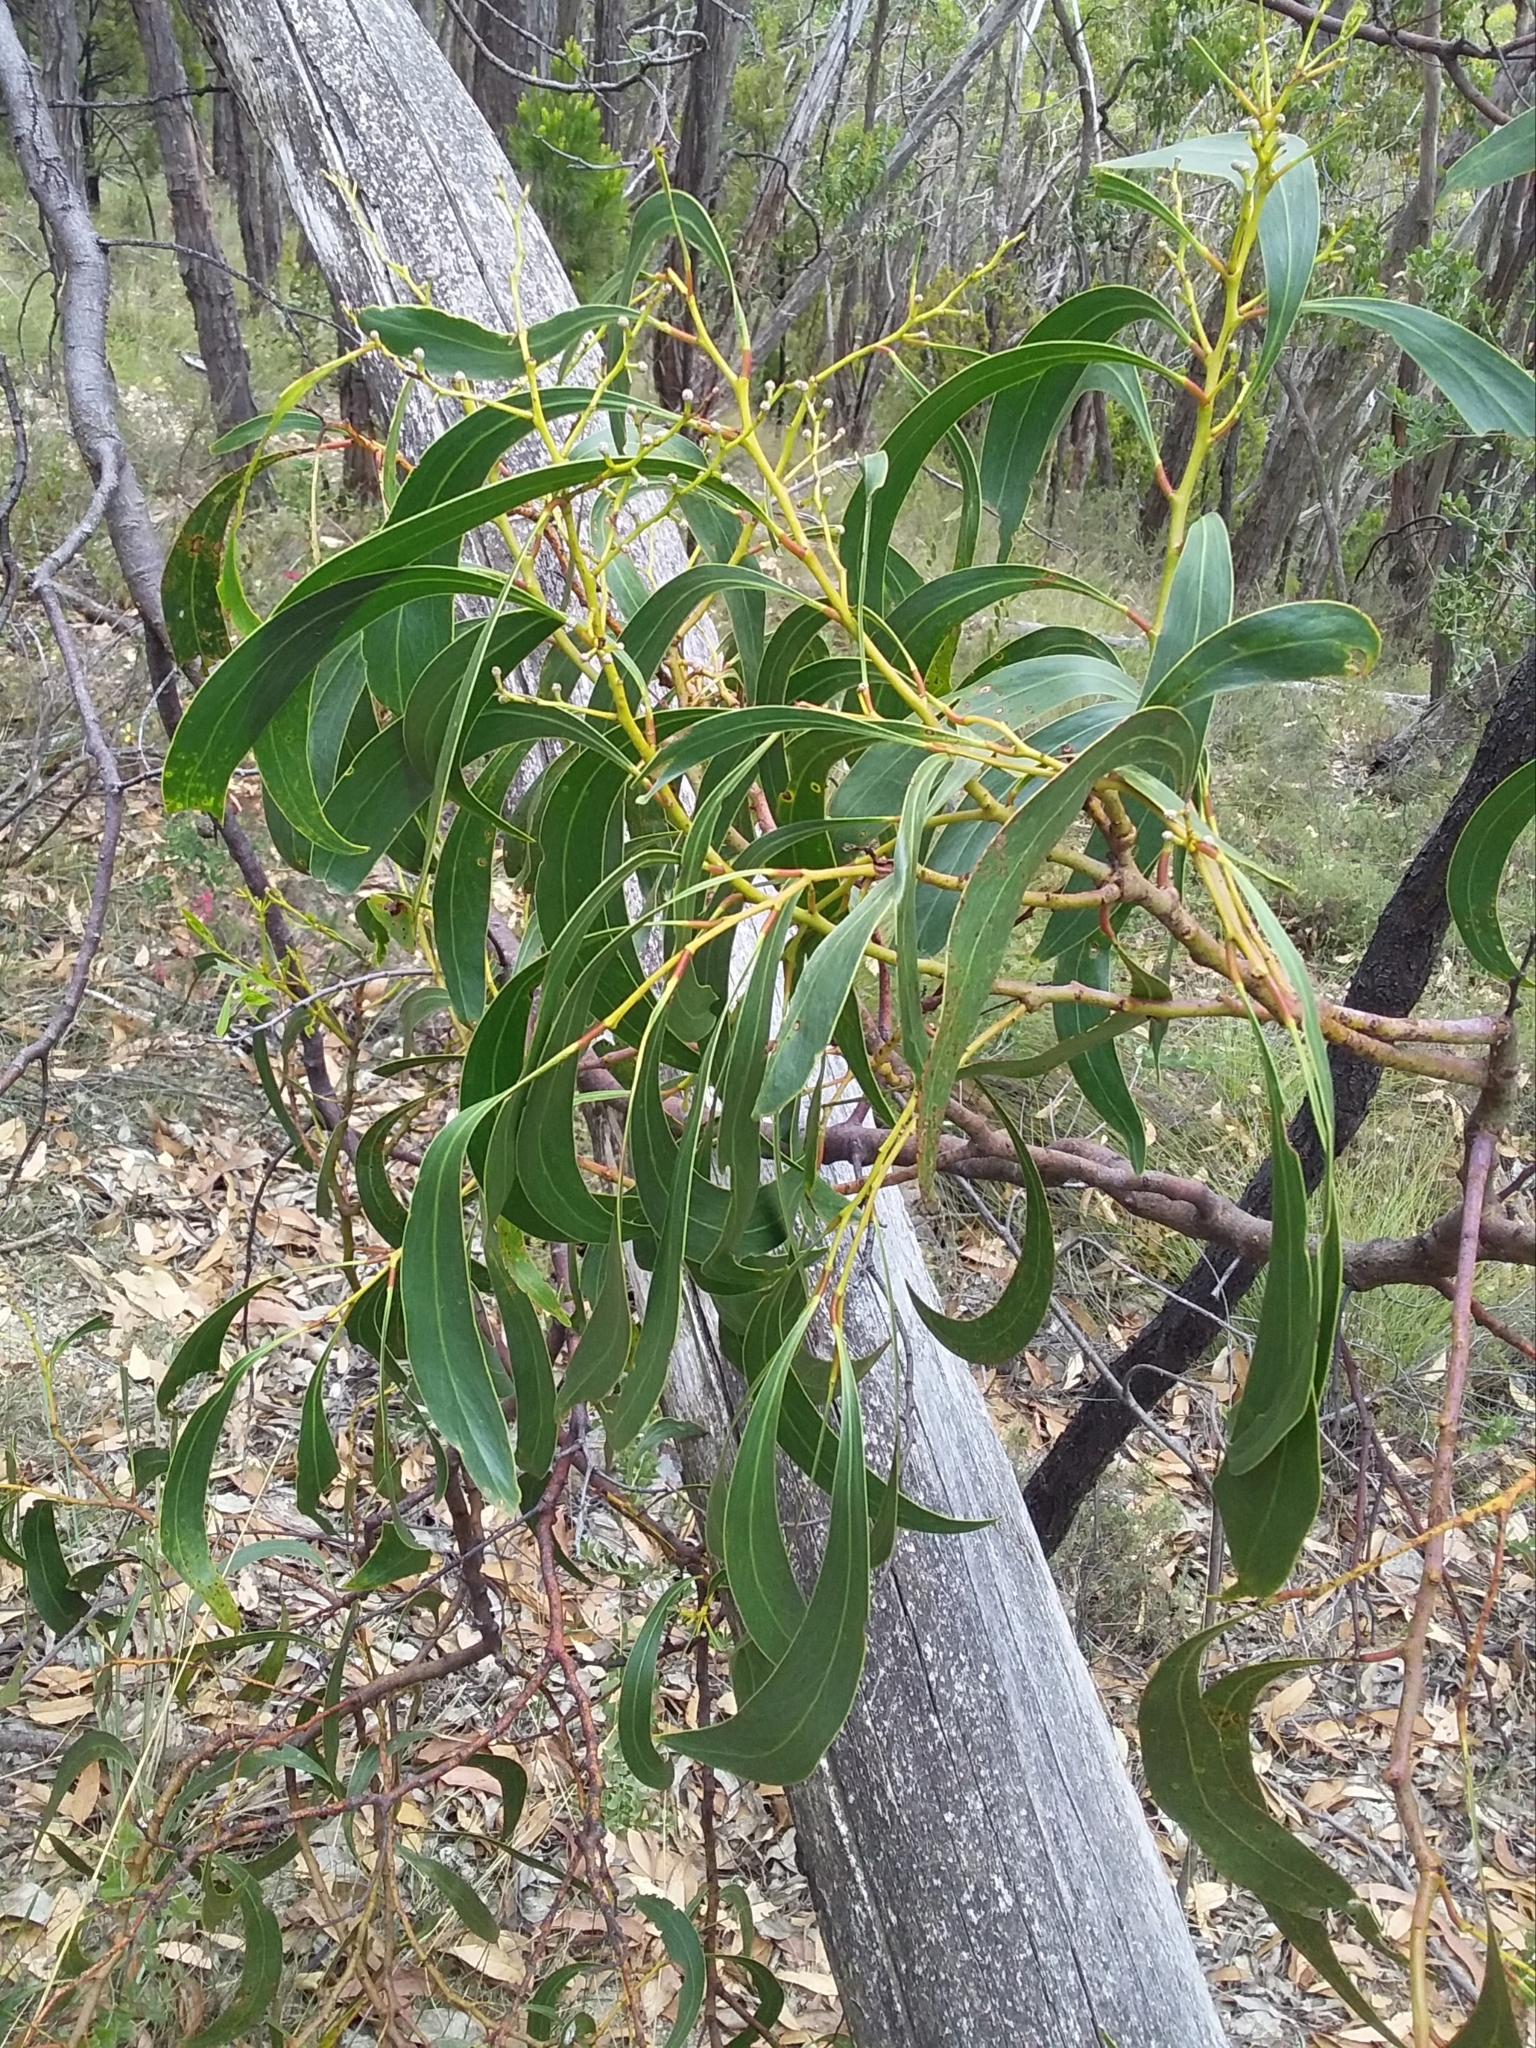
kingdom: Plantae
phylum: Tracheophyta
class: Magnoliopsida
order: Fabales
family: Fabaceae
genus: Acacia
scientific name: Acacia pycnantha
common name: Golden wattle
